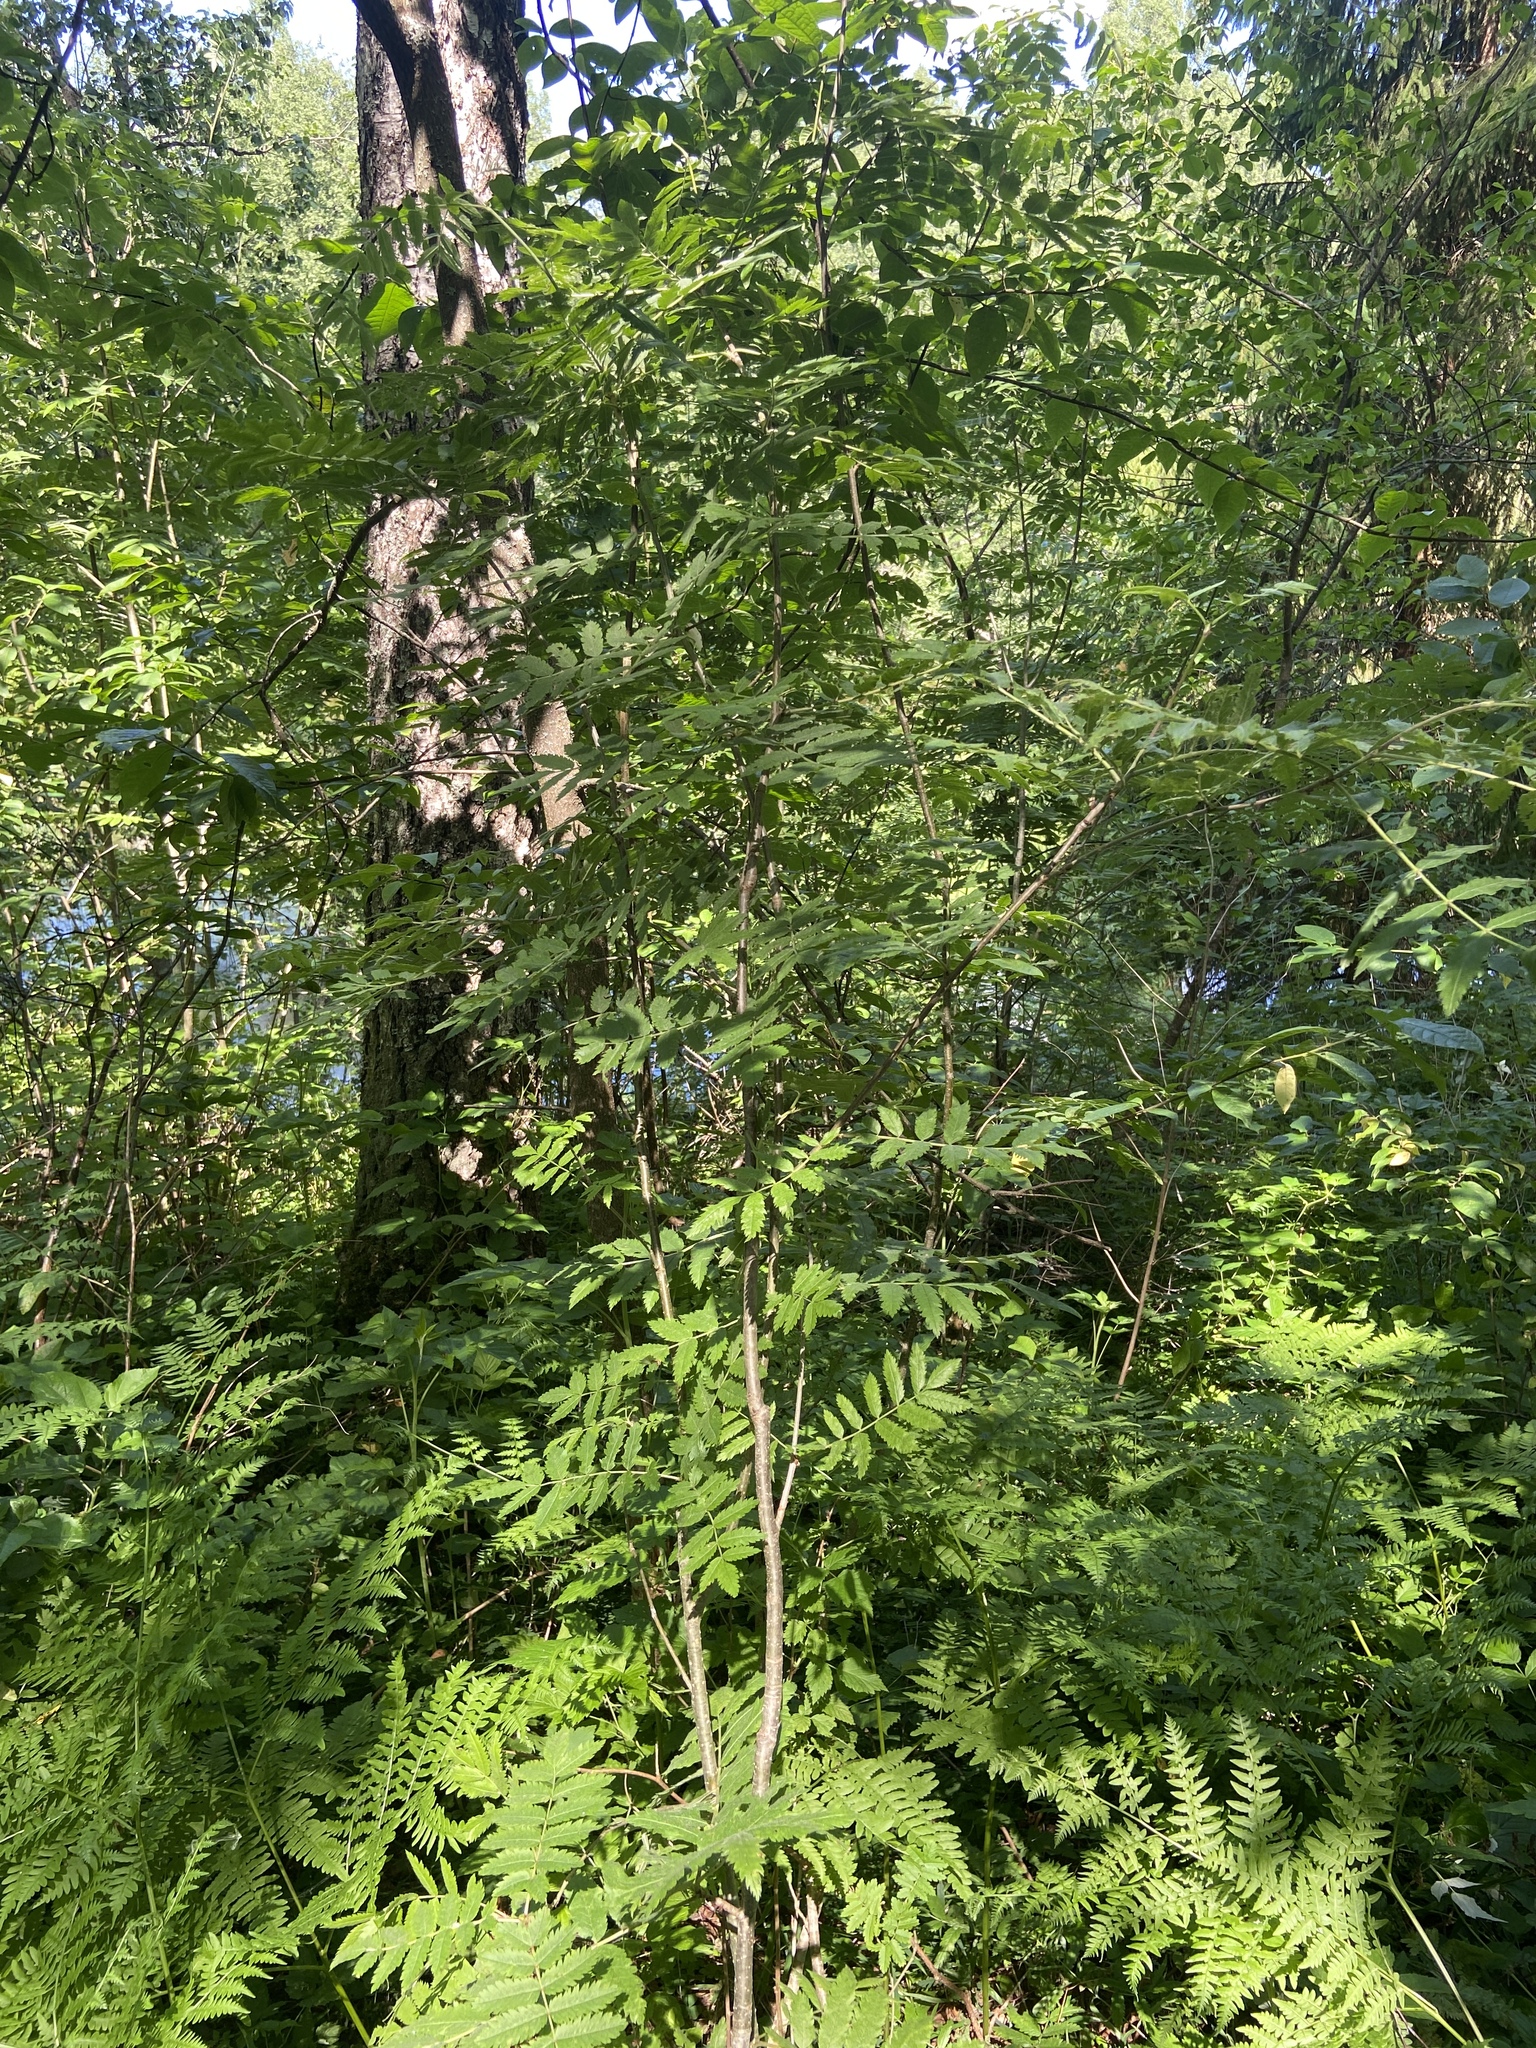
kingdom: Plantae
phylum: Tracheophyta
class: Magnoliopsida
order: Rosales
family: Rosaceae
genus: Sorbus
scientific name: Sorbus aucuparia
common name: Rowan
